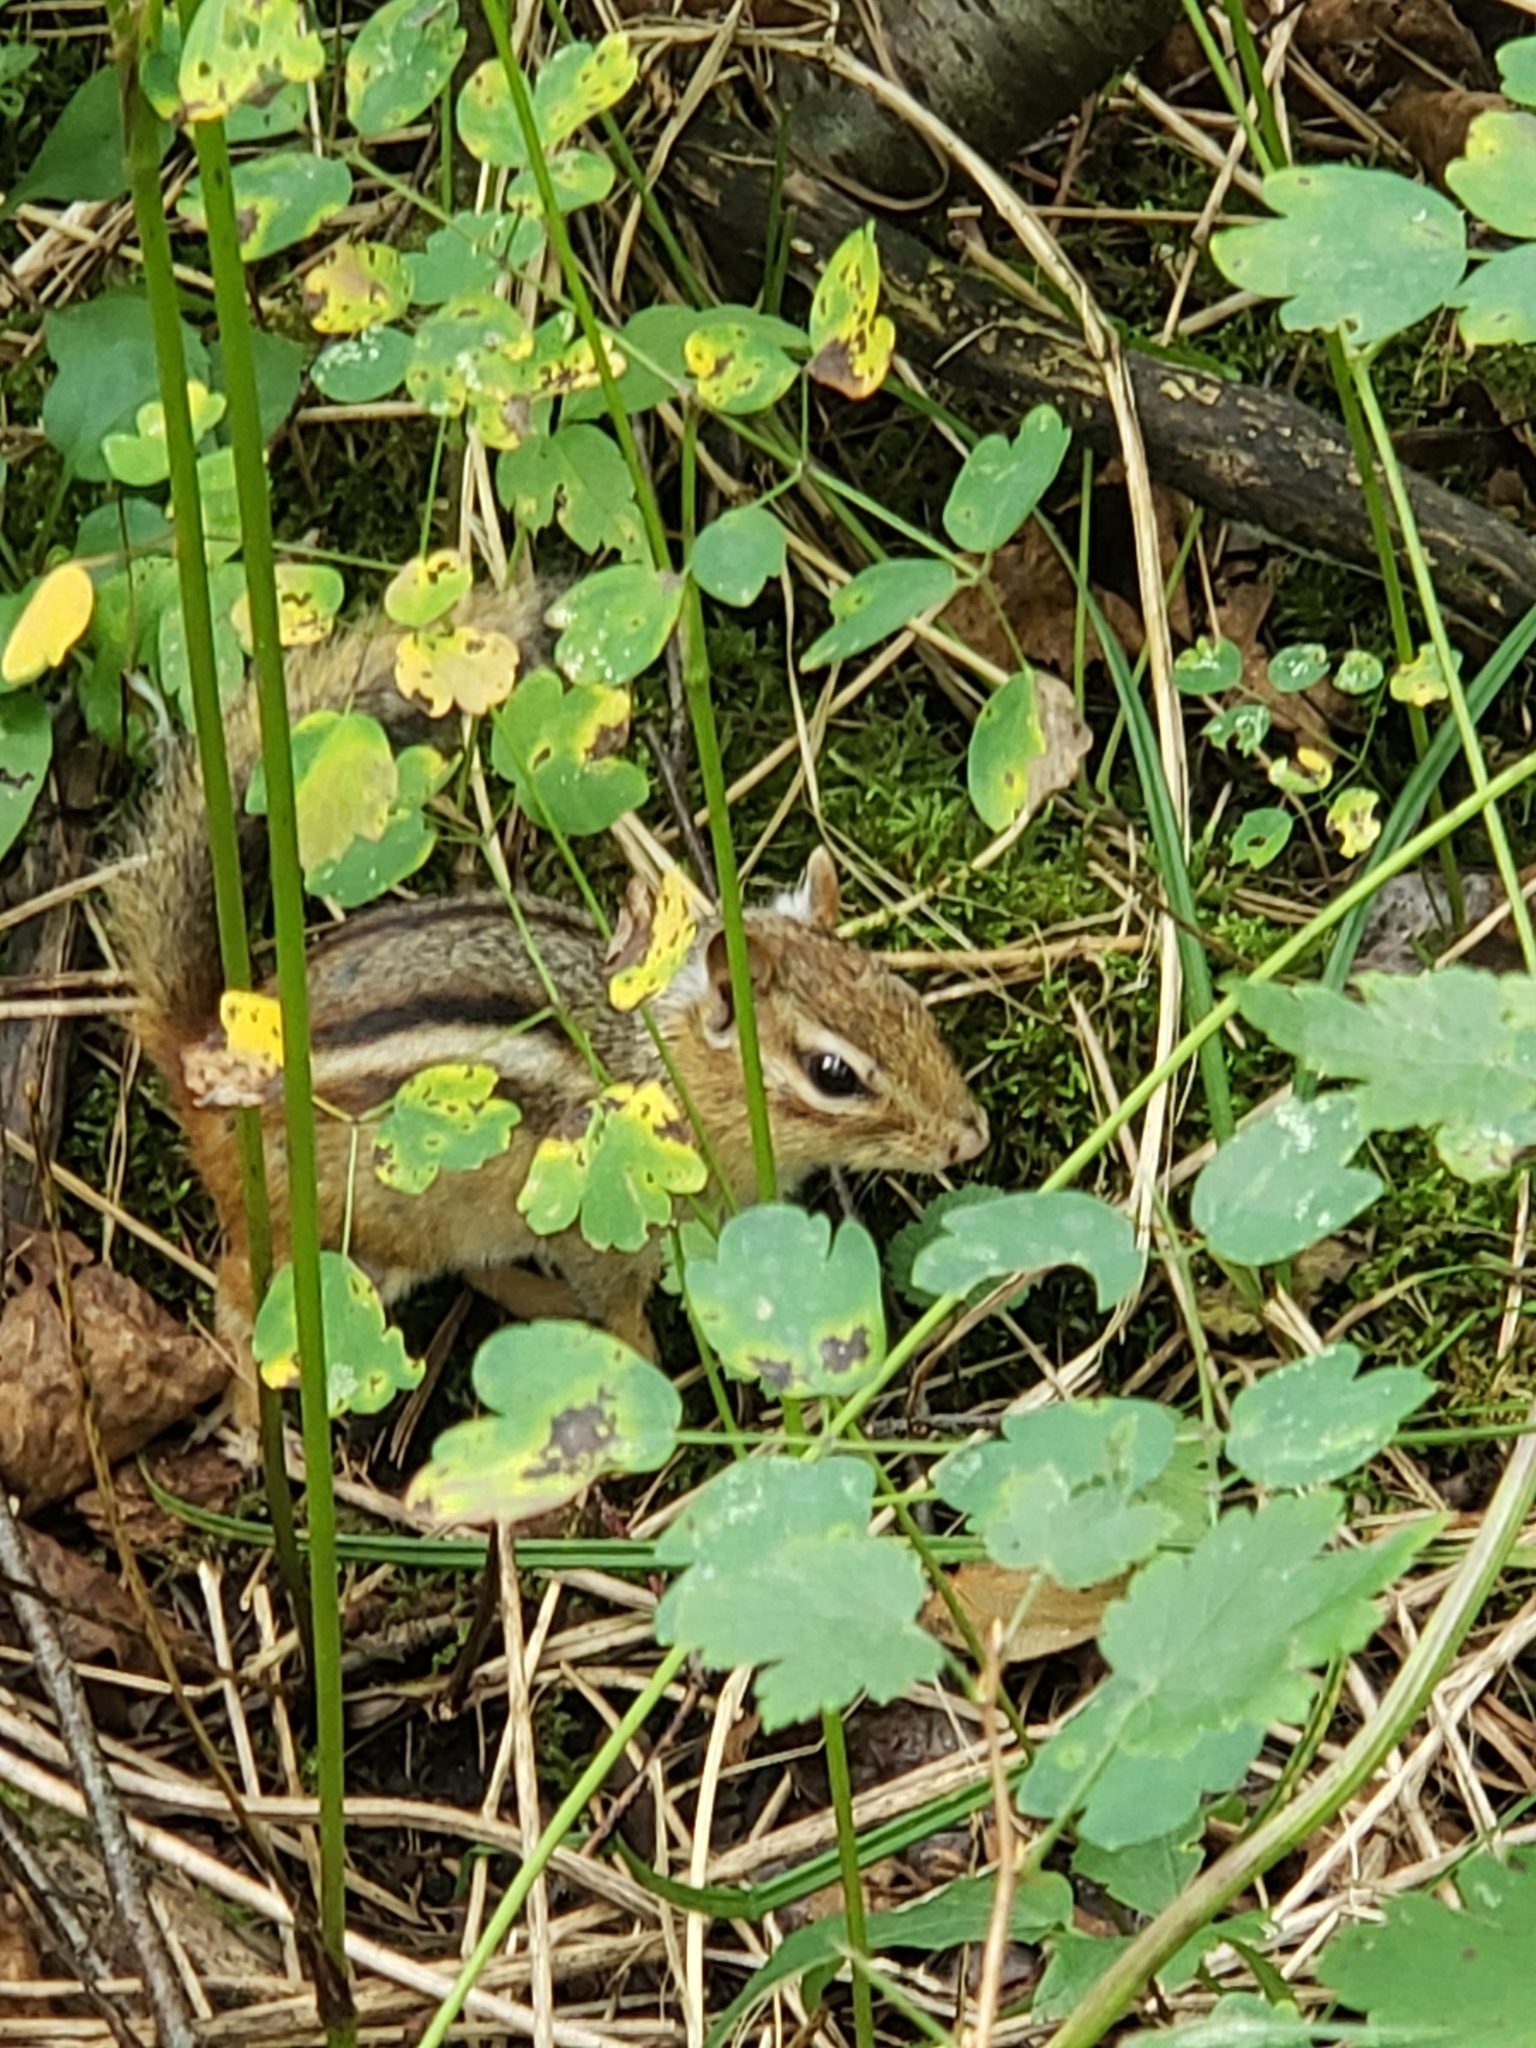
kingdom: Animalia
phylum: Chordata
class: Mammalia
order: Rodentia
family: Sciuridae
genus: Tamias
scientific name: Tamias striatus
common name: Eastern chipmunk
